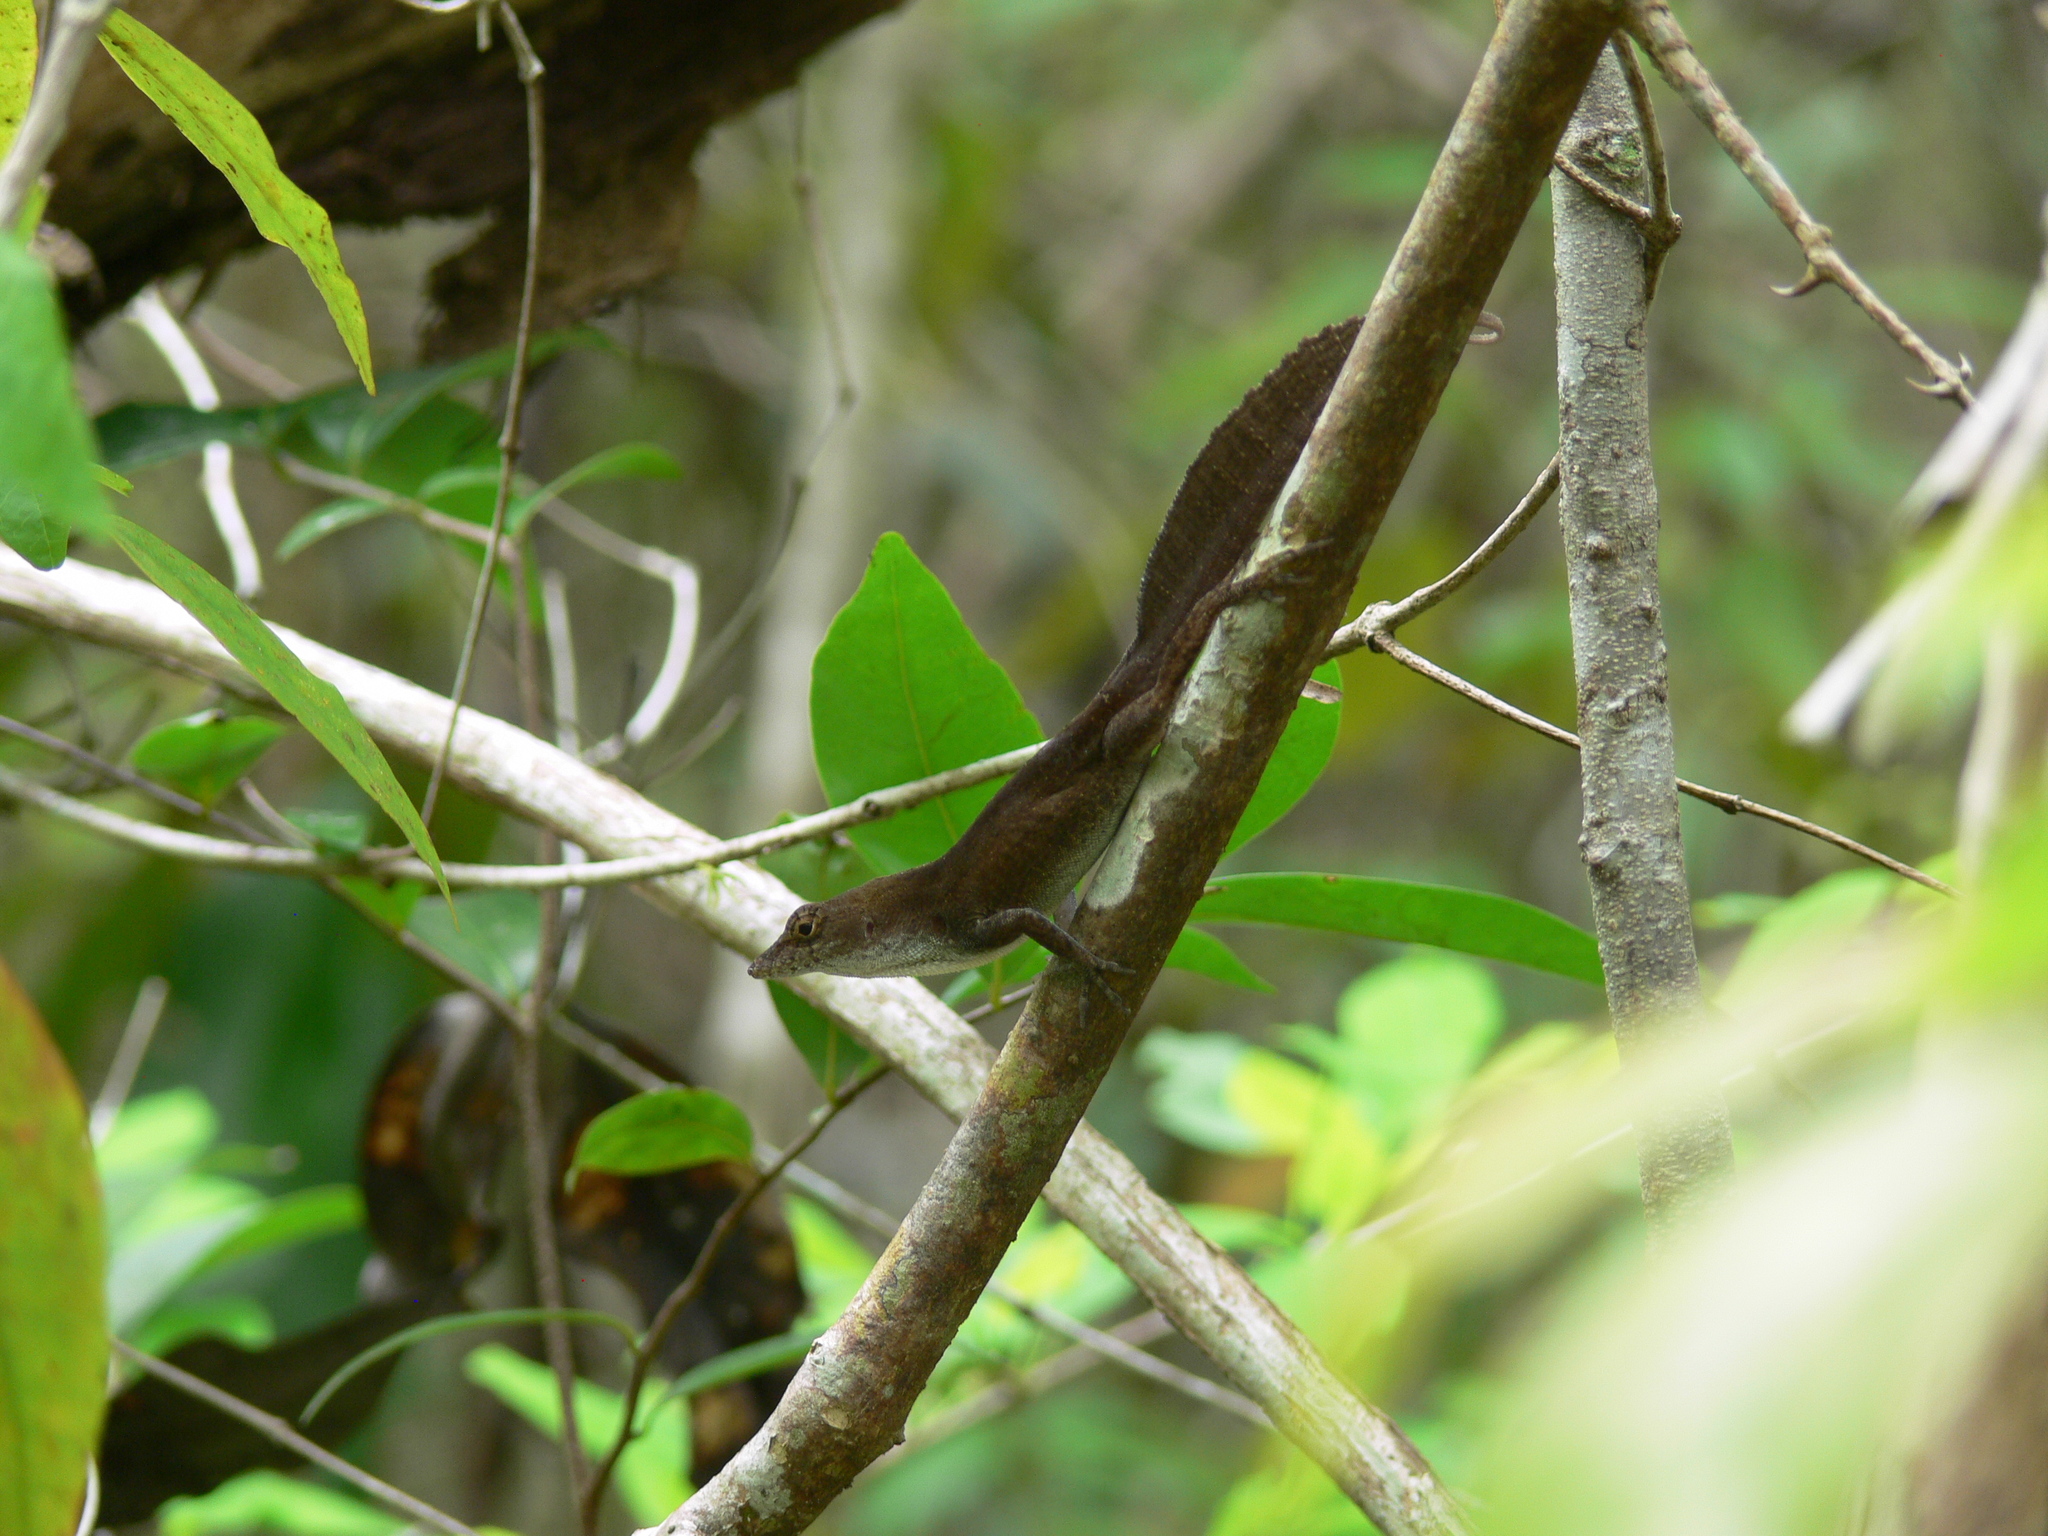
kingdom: Animalia
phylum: Chordata
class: Squamata
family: Dactyloidae
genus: Anolis
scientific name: Anolis homolechis
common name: Habana anole
